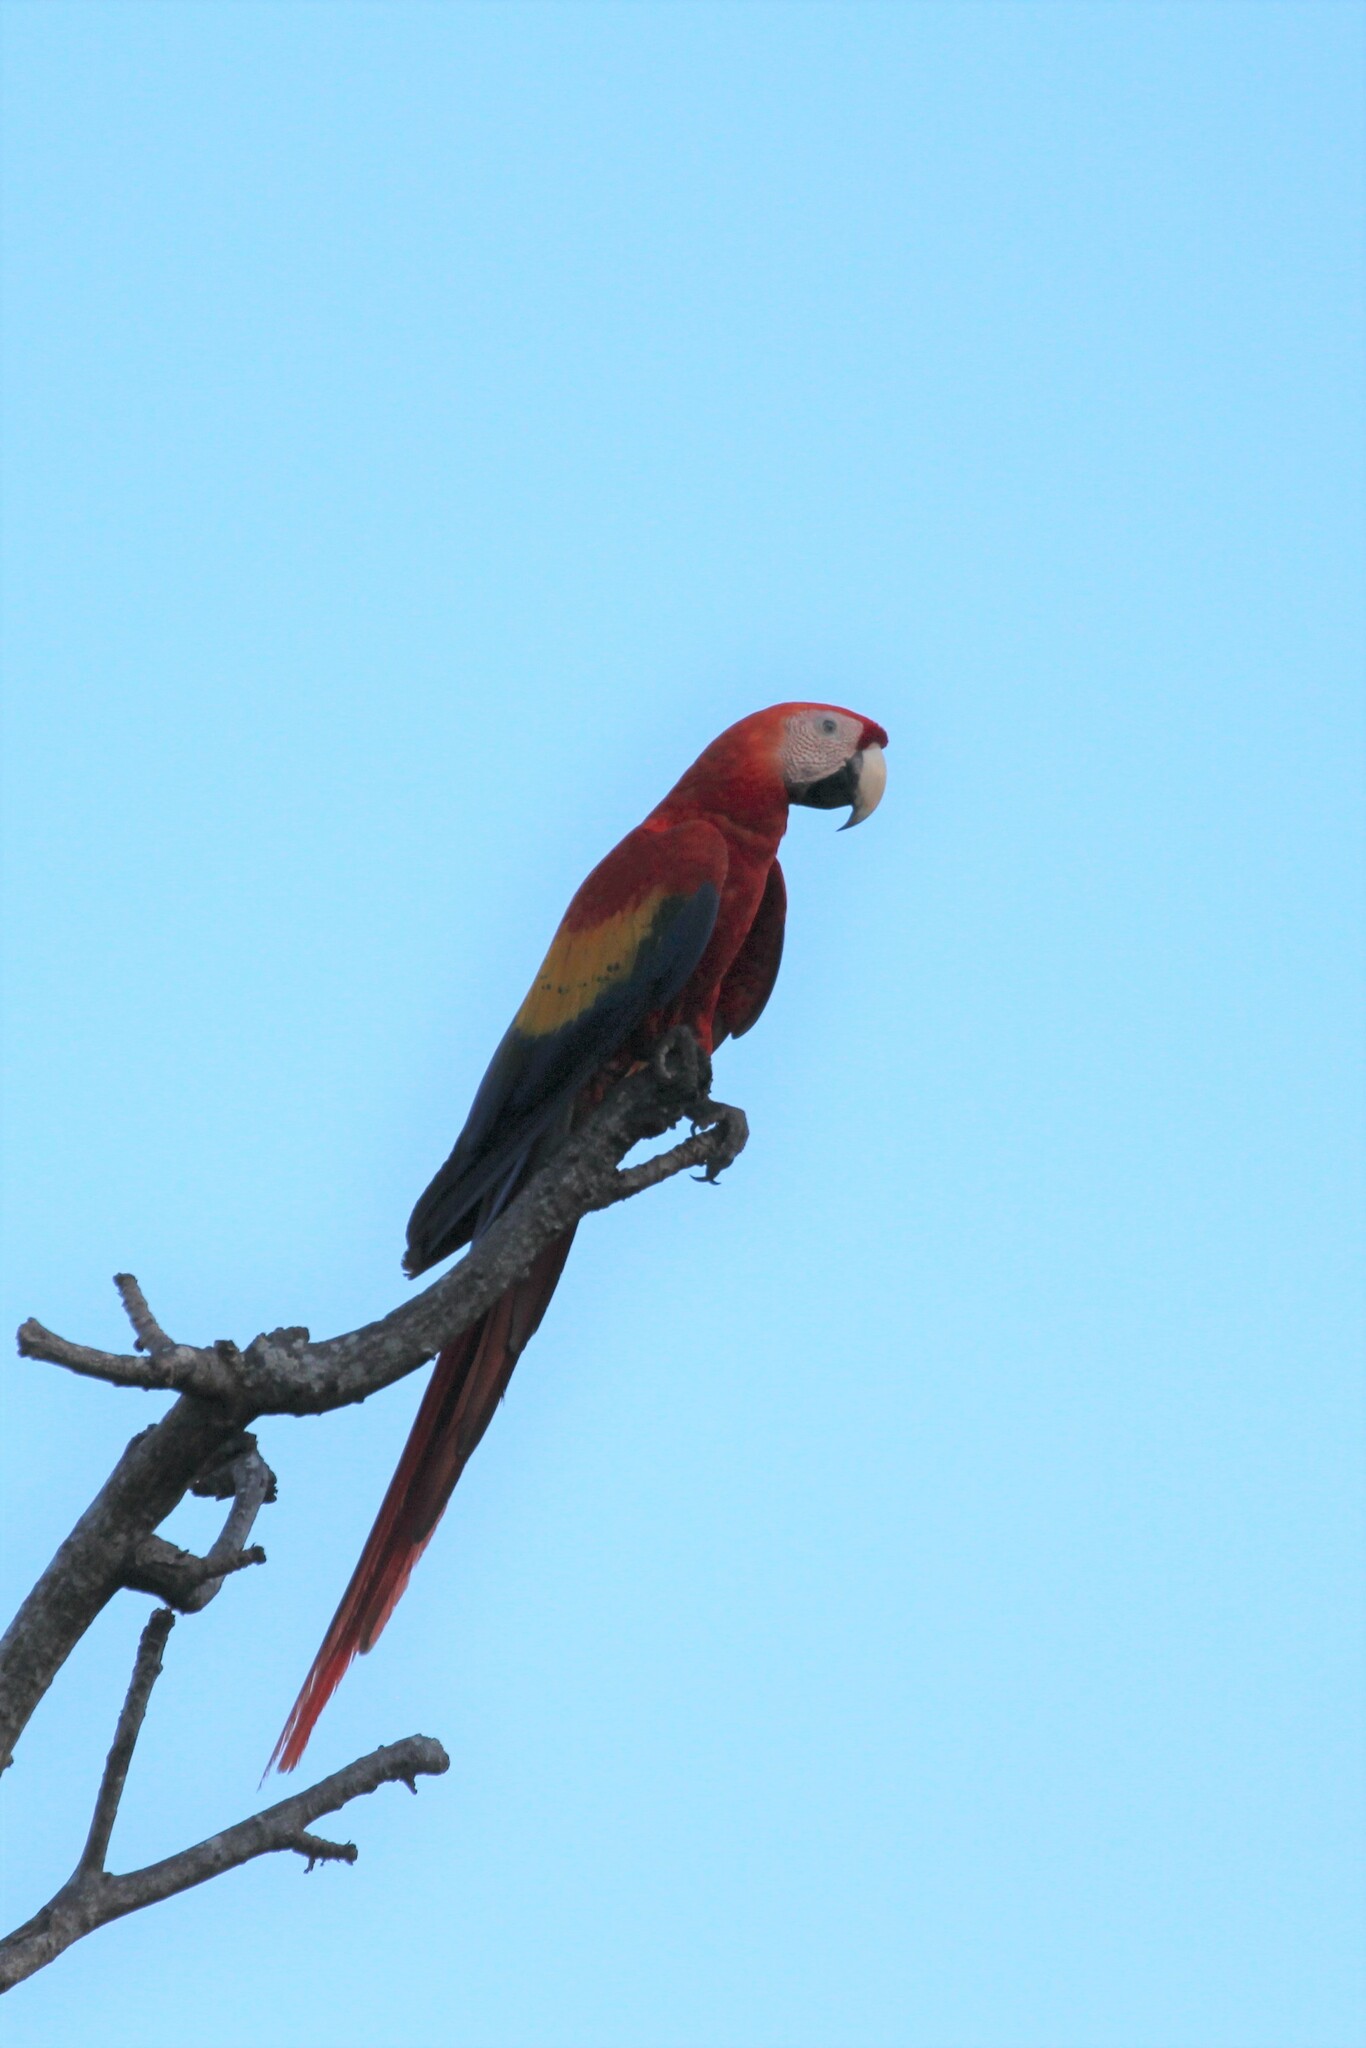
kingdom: Animalia
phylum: Chordata
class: Aves
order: Psittaciformes
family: Psittacidae
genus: Ara
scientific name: Ara macao
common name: Scarlet macaw
